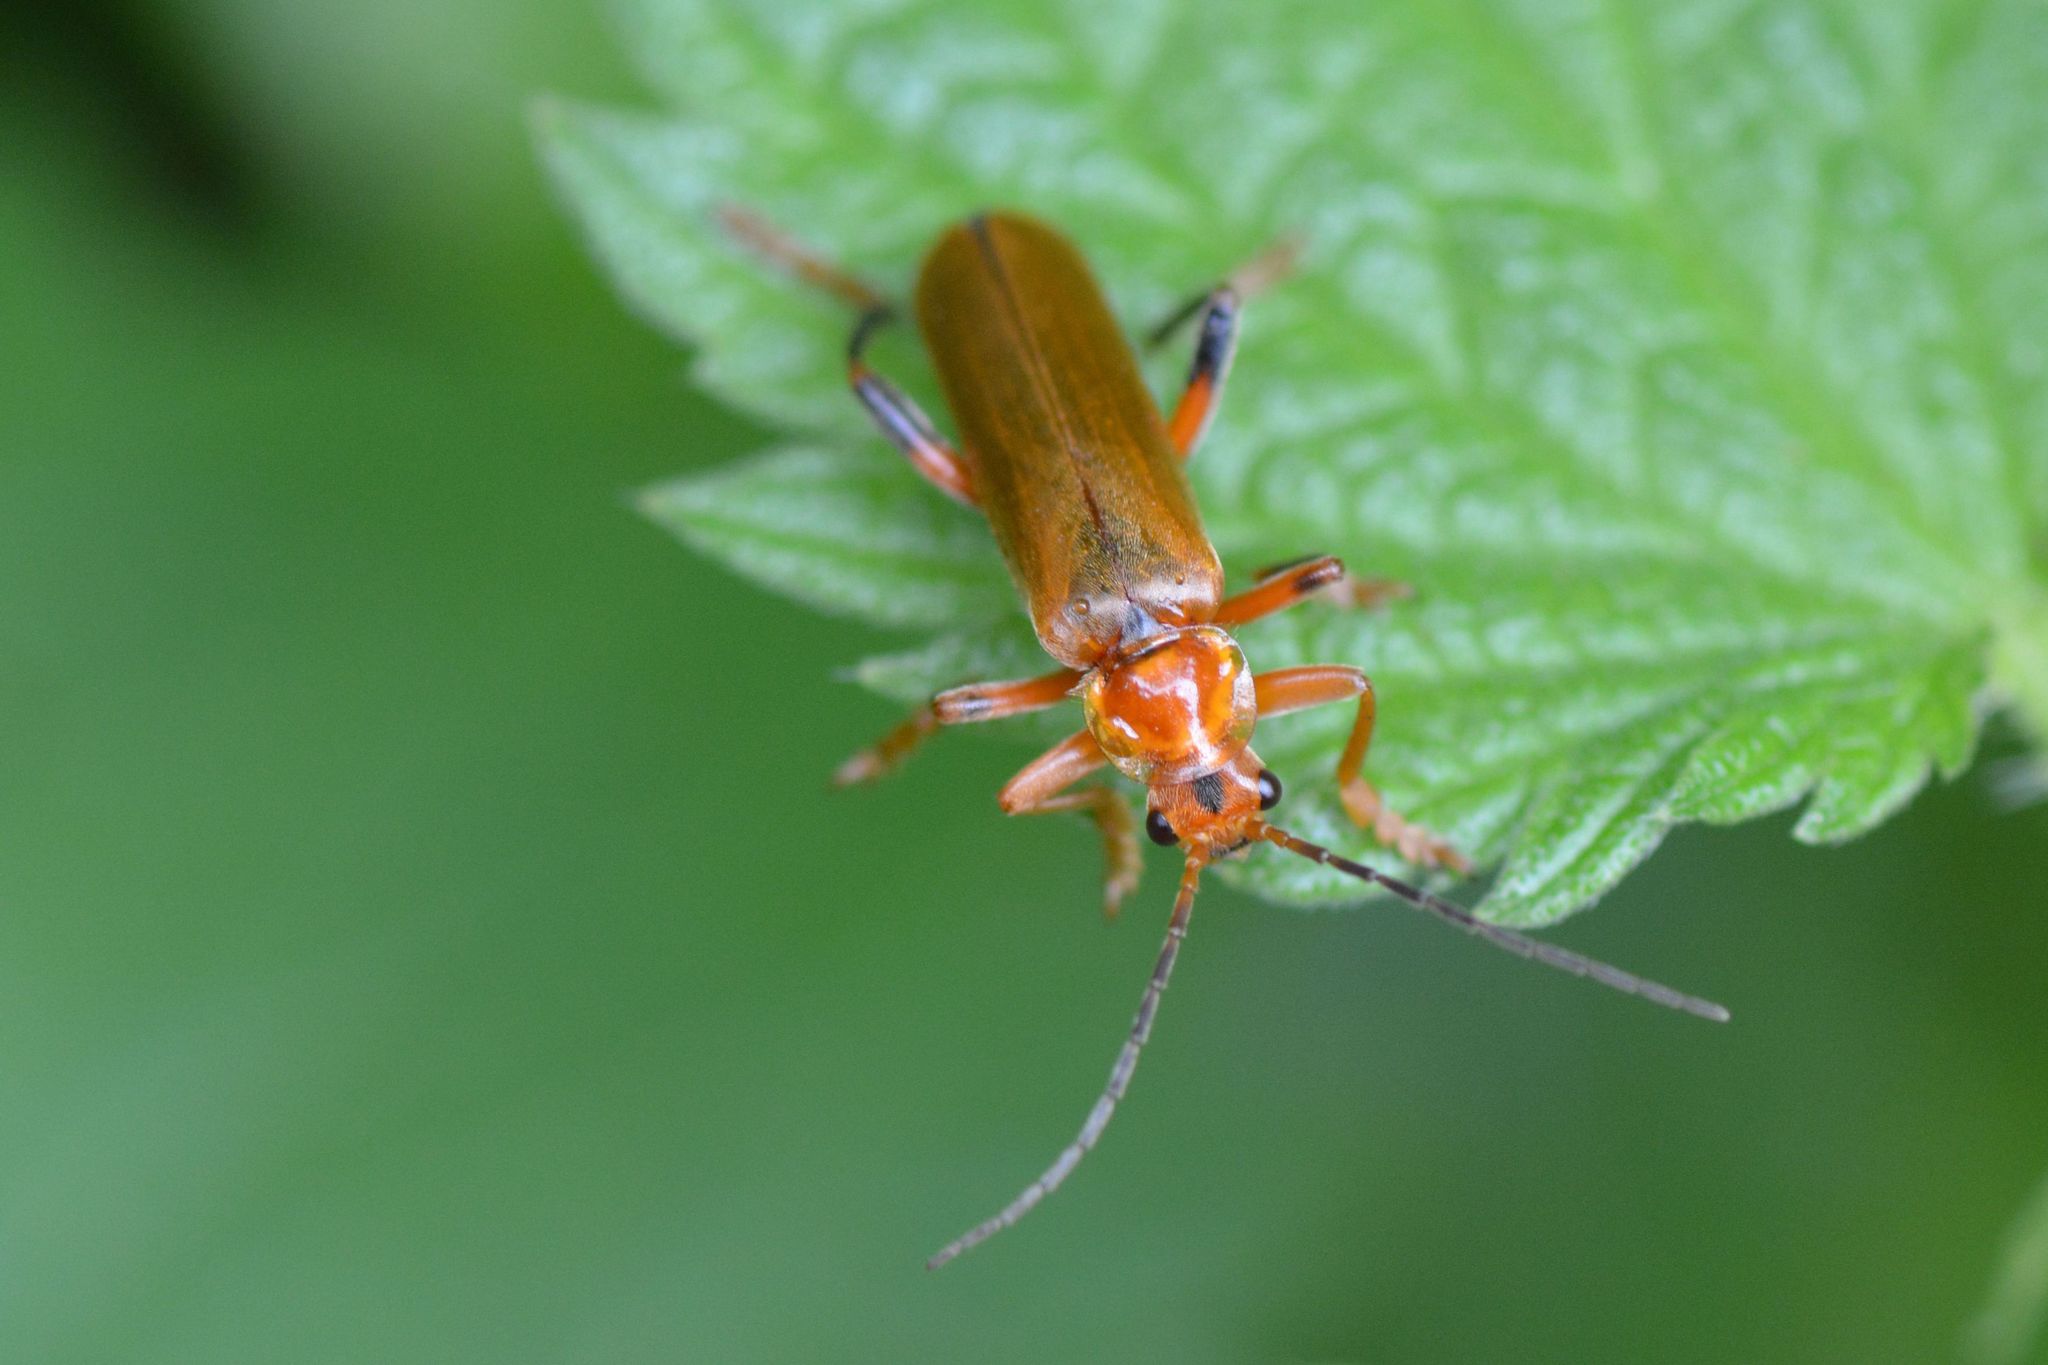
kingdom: Animalia
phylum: Arthropoda
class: Insecta
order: Coleoptera
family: Cantharidae
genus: Cantharis
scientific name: Cantharis livida
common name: Livid soldier beetle
